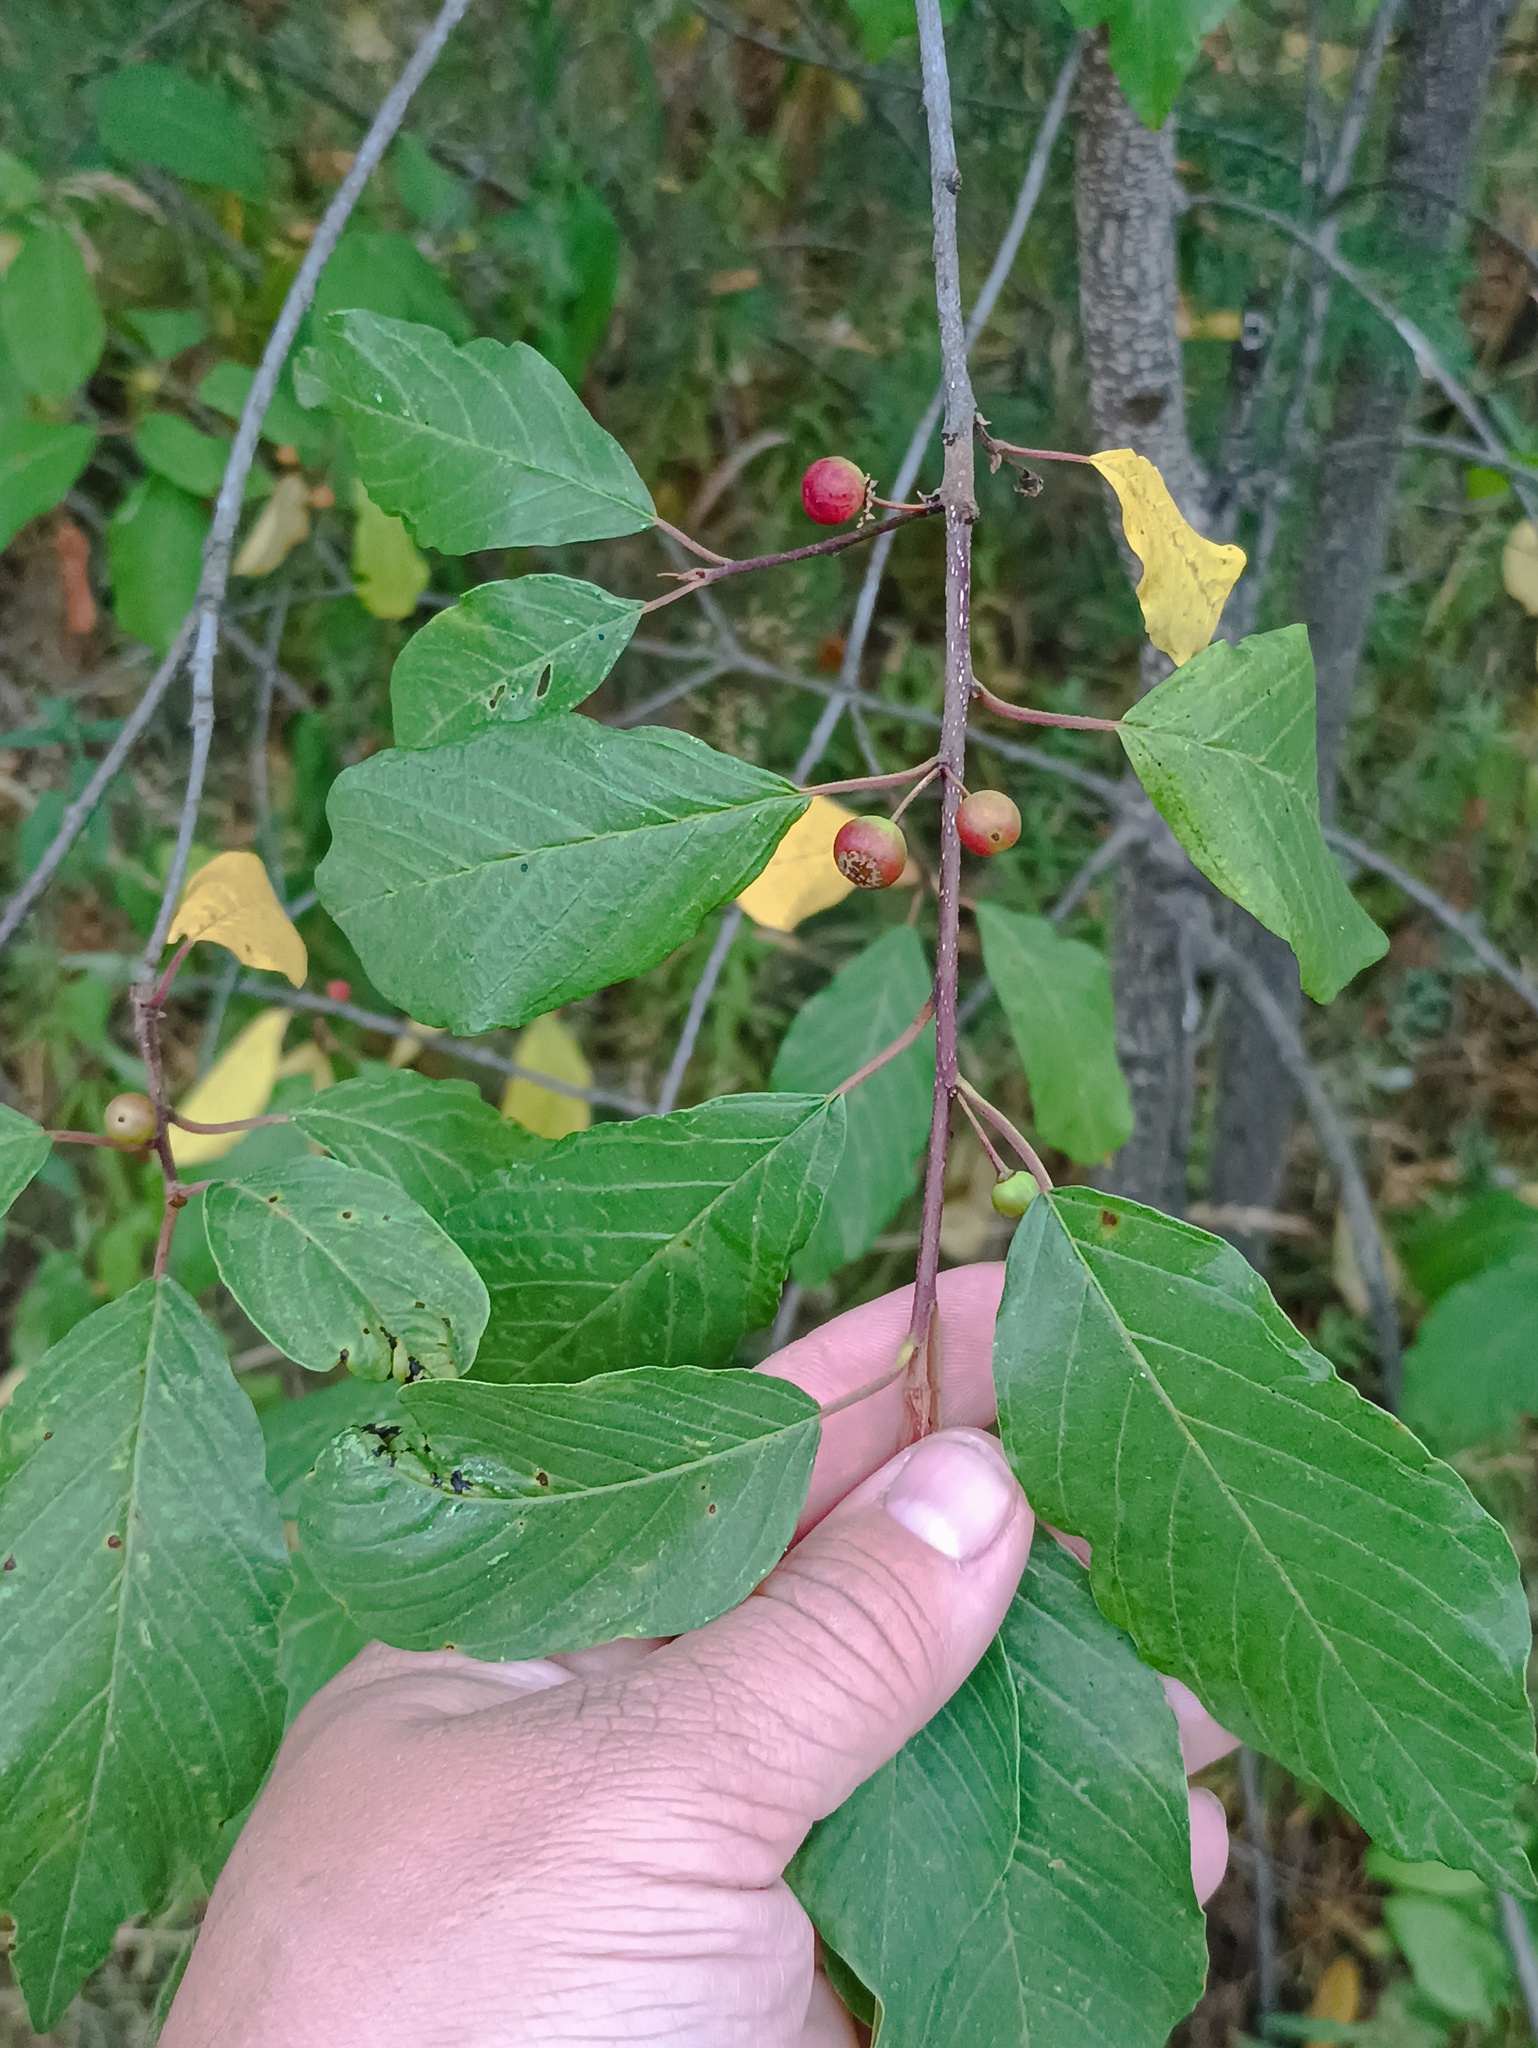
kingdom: Plantae
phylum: Tracheophyta
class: Magnoliopsida
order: Rosales
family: Rhamnaceae
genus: Frangula
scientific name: Frangula alnus
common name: Alder buckthorn
